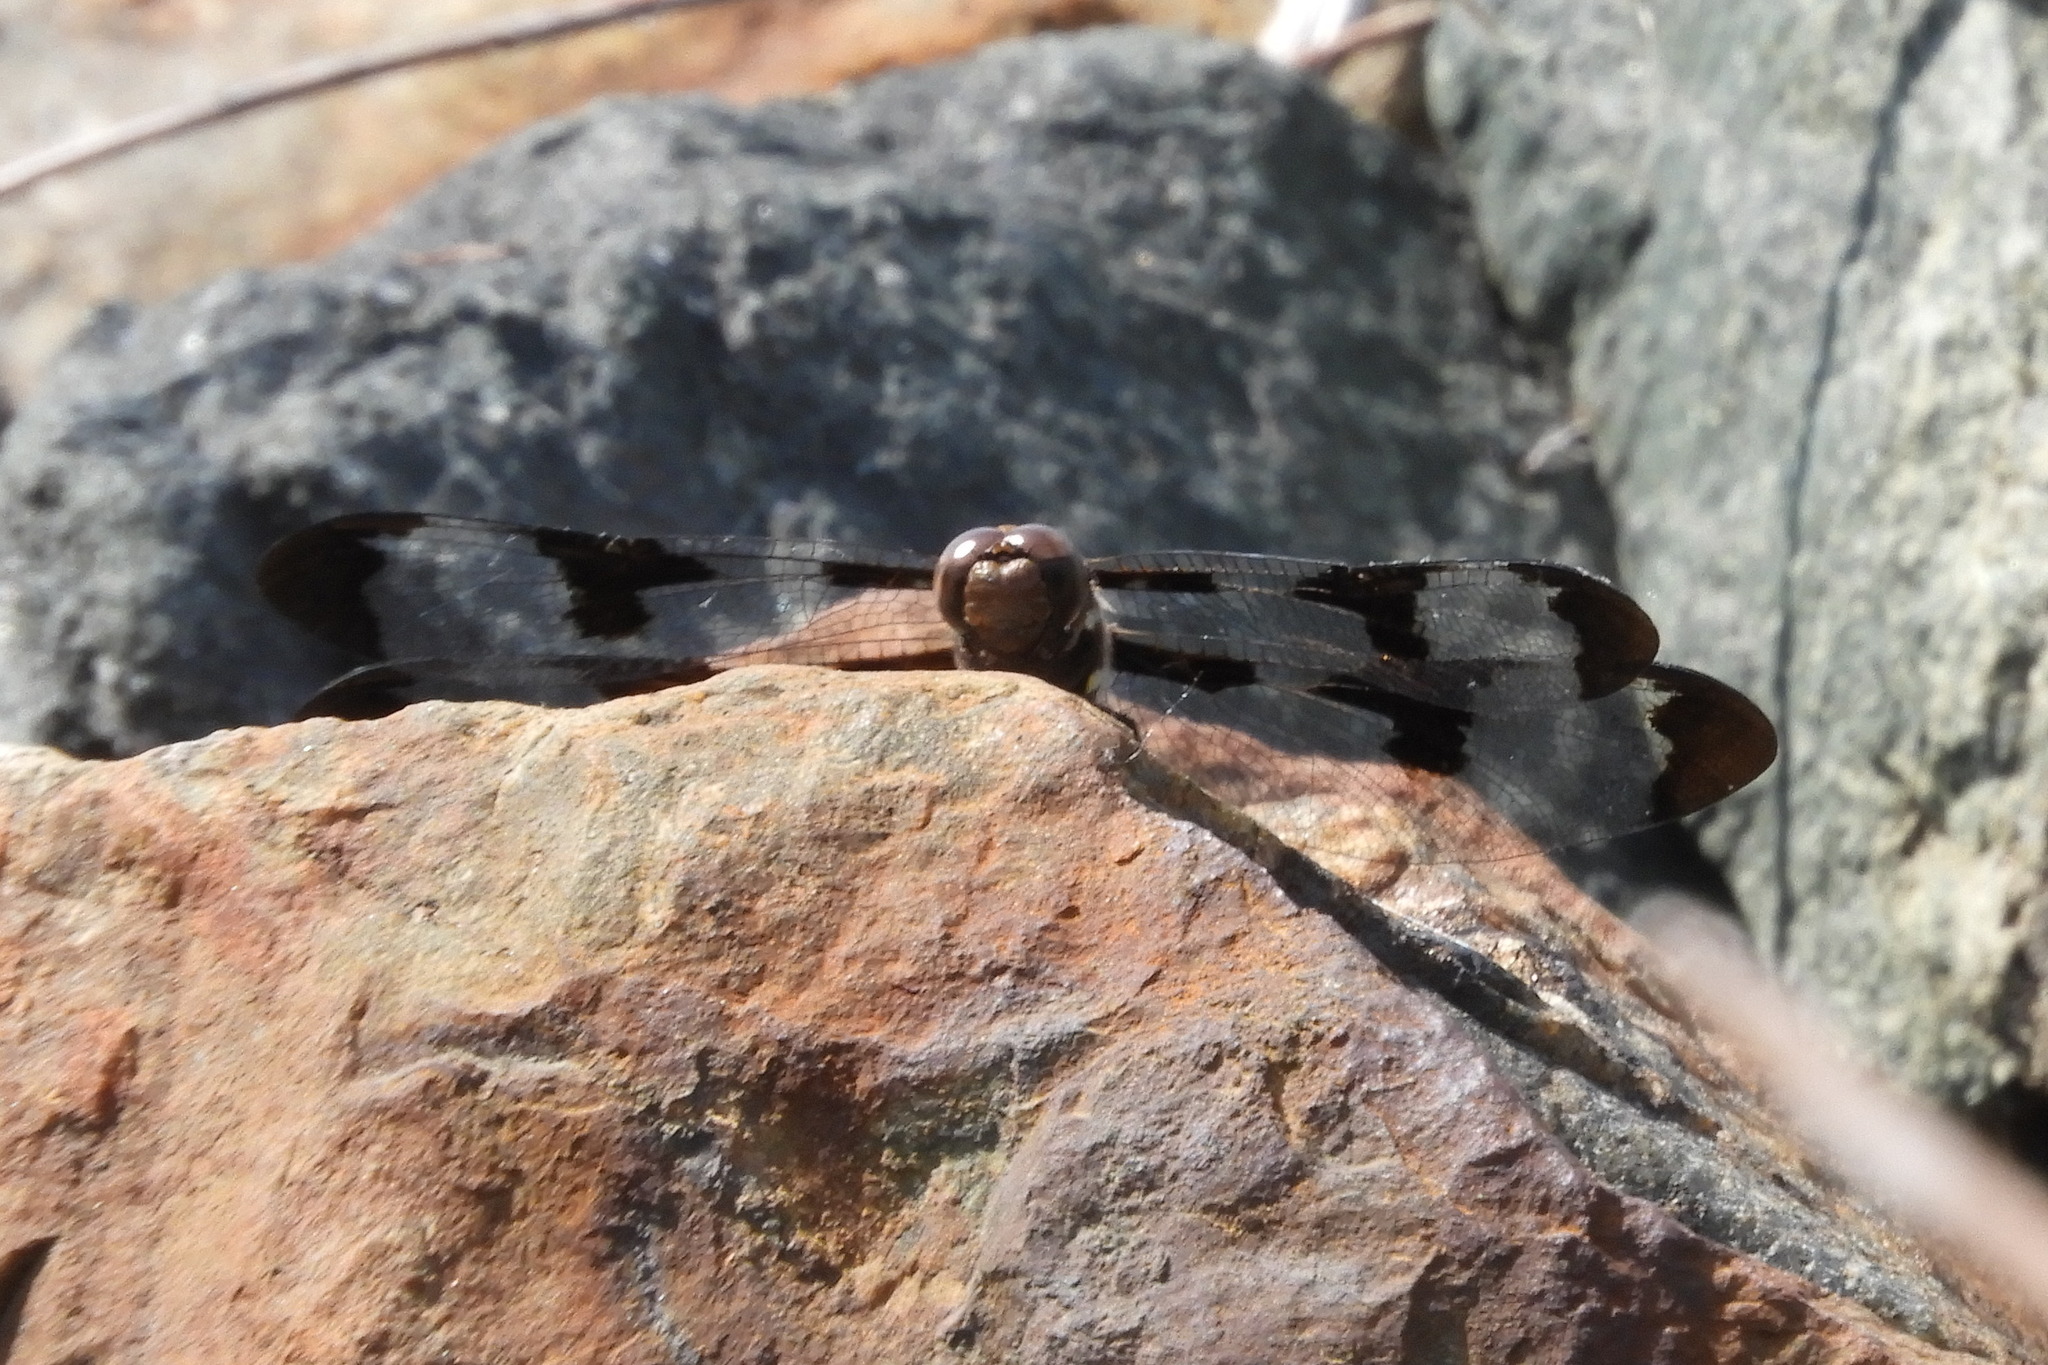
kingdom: Animalia
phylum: Arthropoda
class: Insecta
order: Odonata
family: Libellulidae
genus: Plathemis
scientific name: Plathemis lydia
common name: Common whitetail
